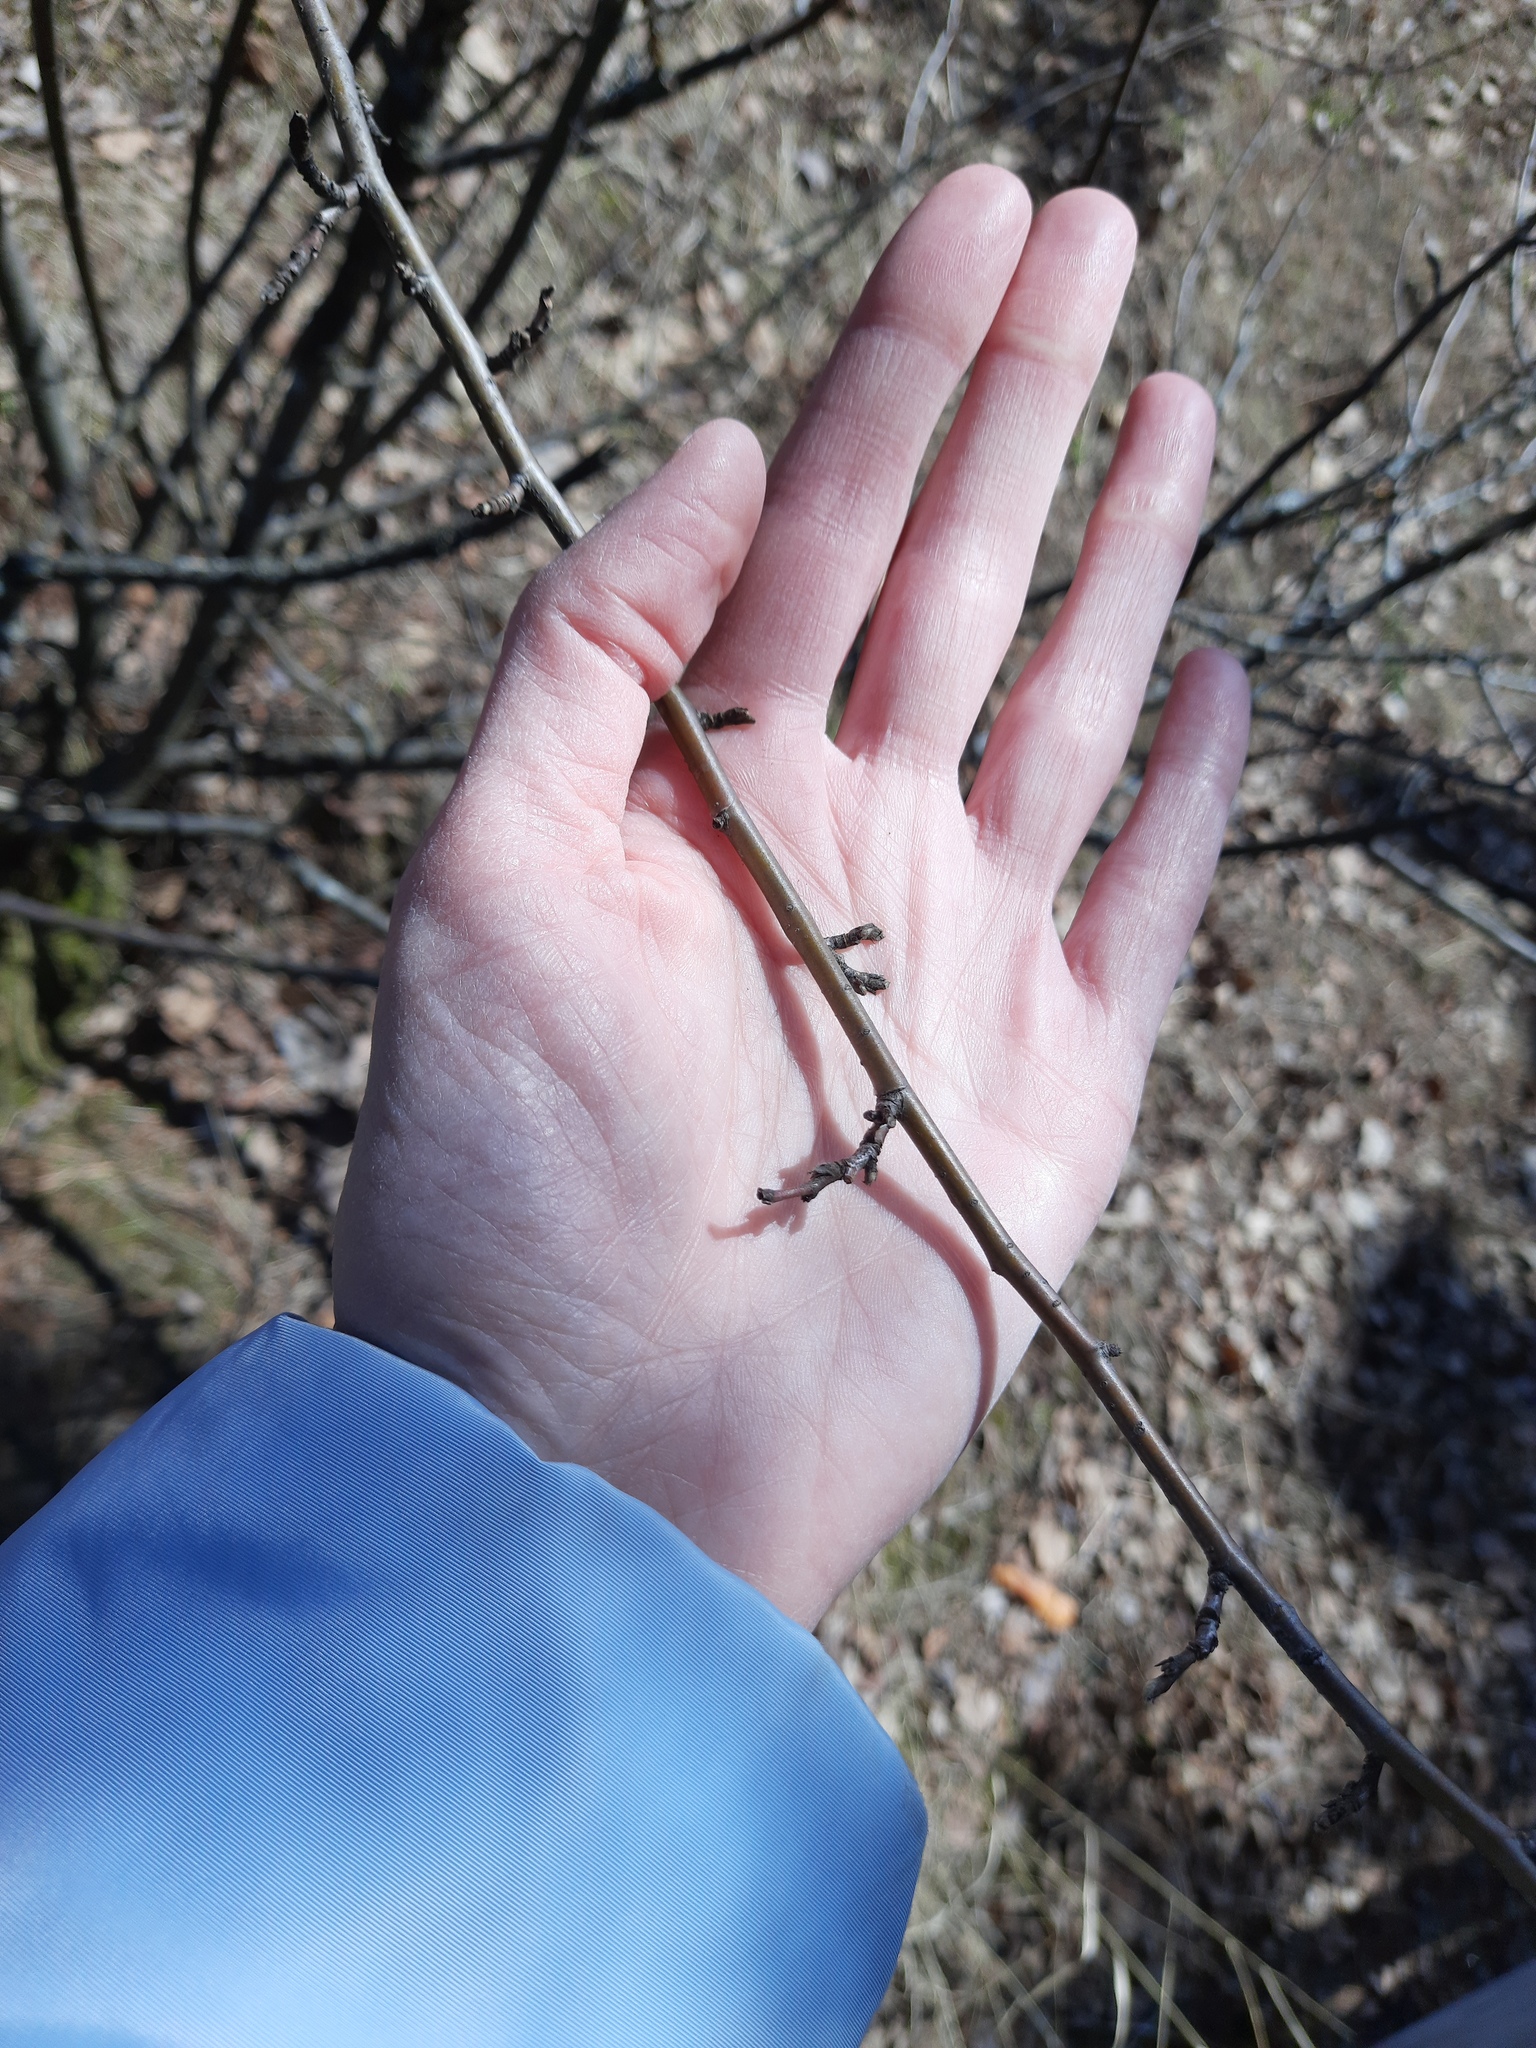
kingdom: Plantae
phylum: Tracheophyta
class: Magnoliopsida
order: Rosales
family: Rosaceae
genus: Cotoneaster
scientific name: Cotoneaster melanocarpus
